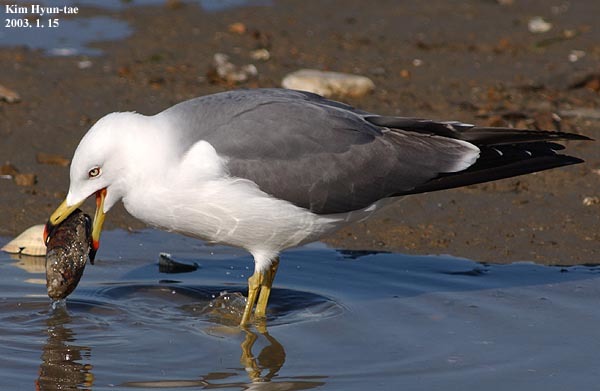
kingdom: Animalia
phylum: Chordata
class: Aves
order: Charadriiformes
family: Laridae
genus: Larus
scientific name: Larus crassirostris
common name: Black-tailed gull
